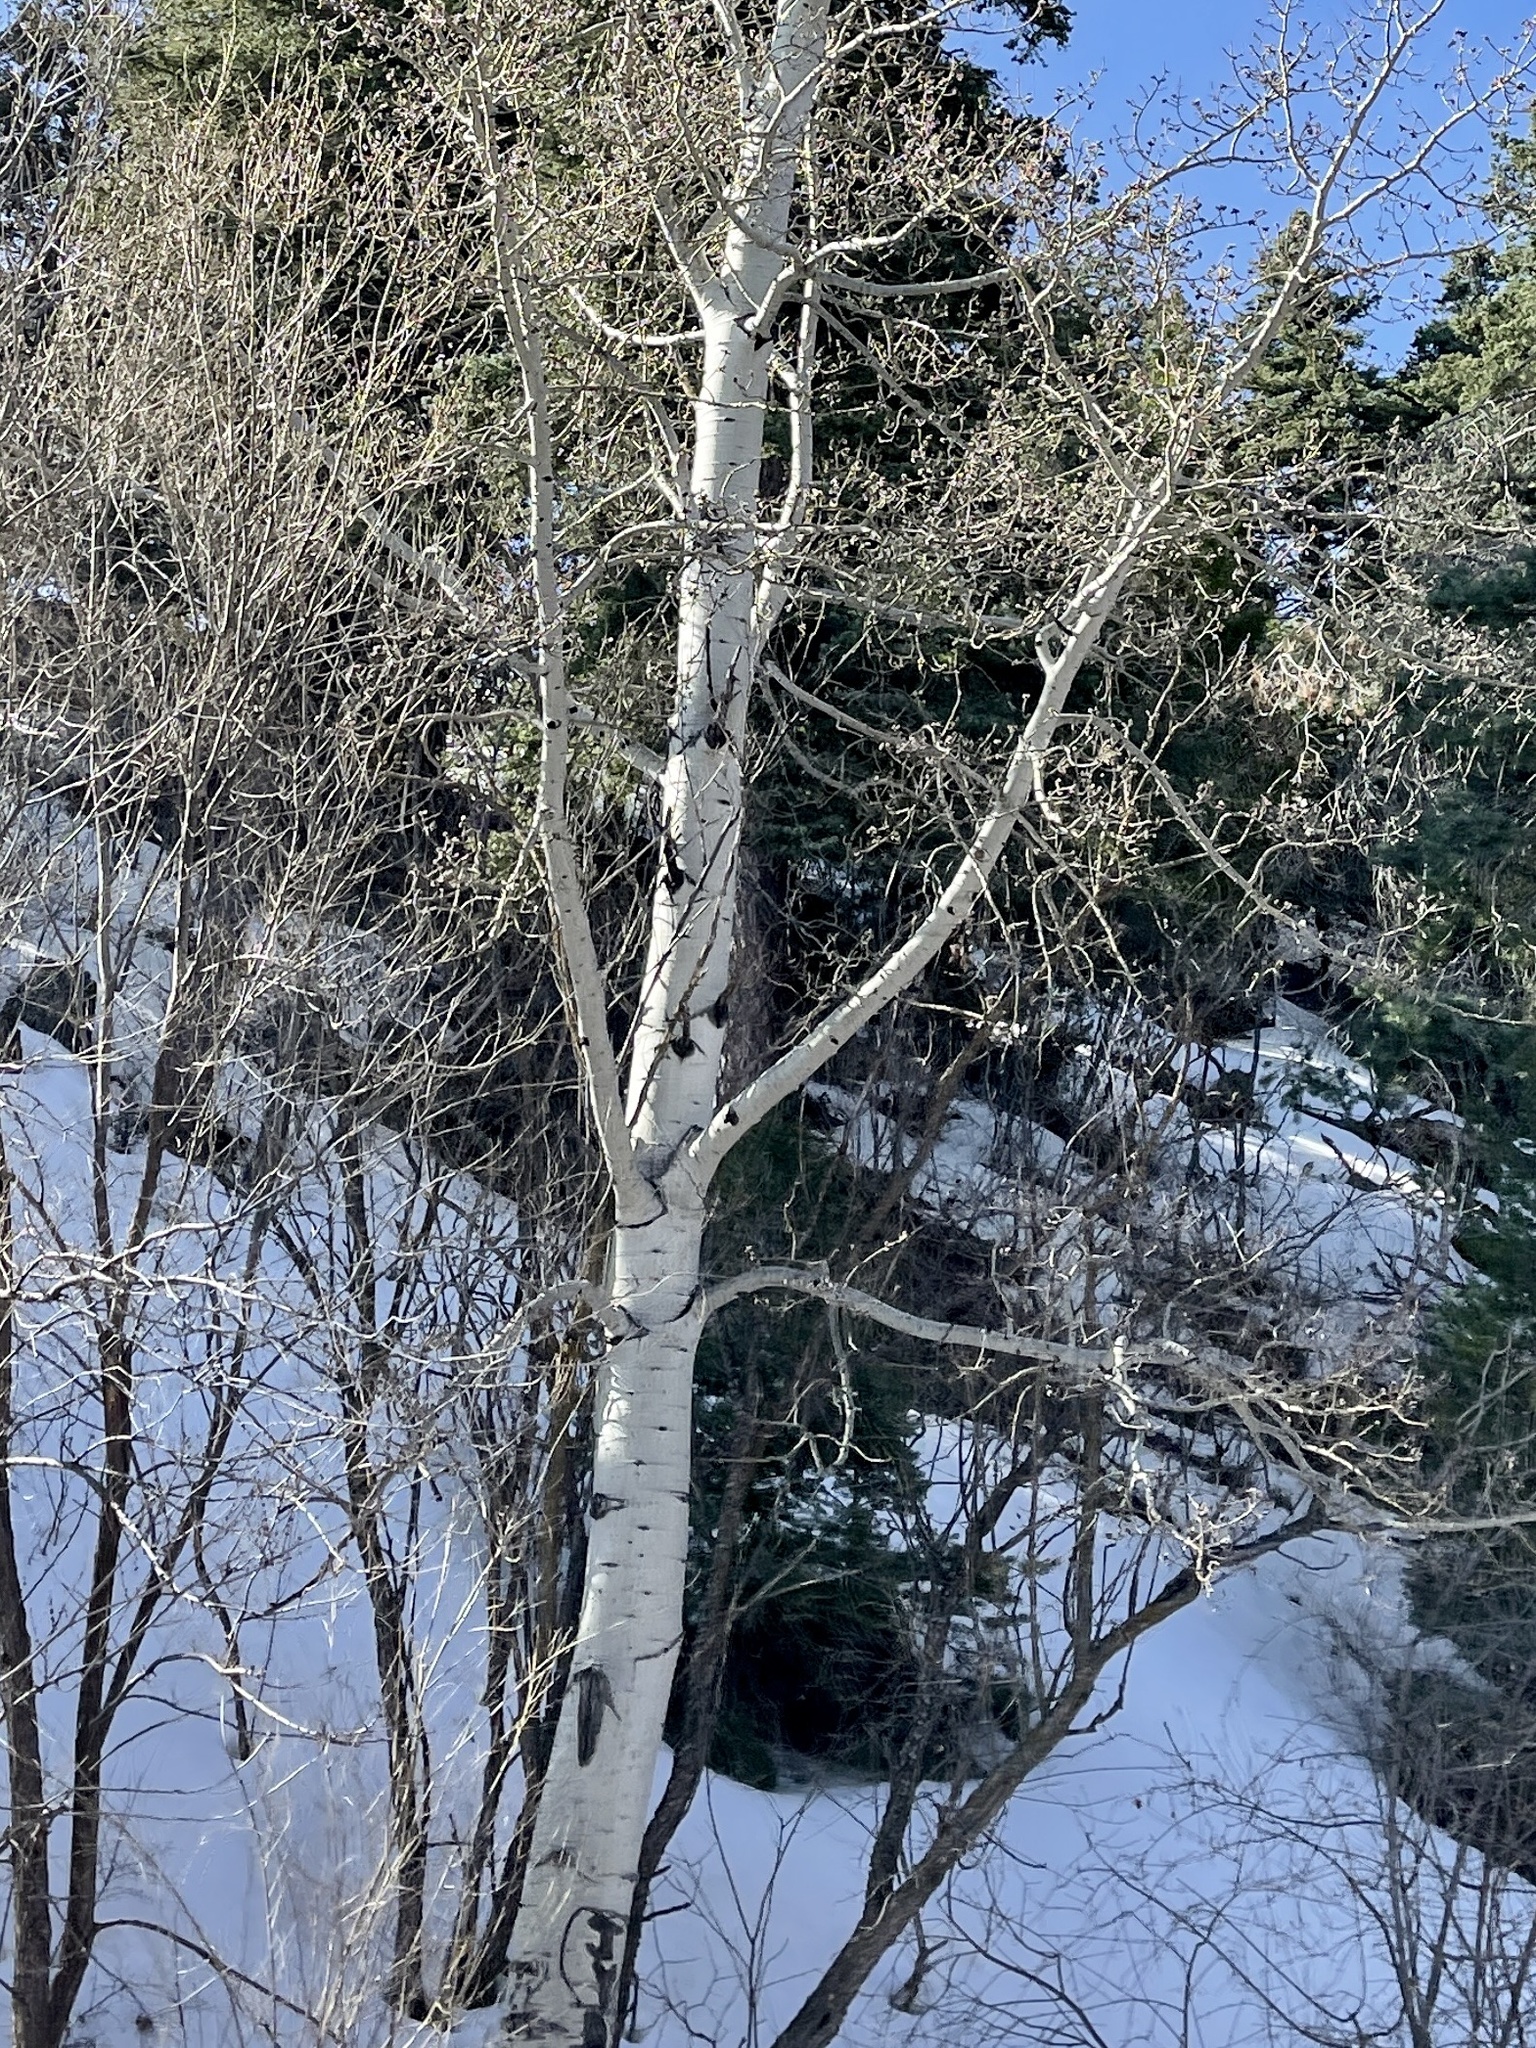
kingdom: Plantae
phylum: Tracheophyta
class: Magnoliopsida
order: Malpighiales
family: Salicaceae
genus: Populus
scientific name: Populus tremuloides
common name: Quaking aspen
